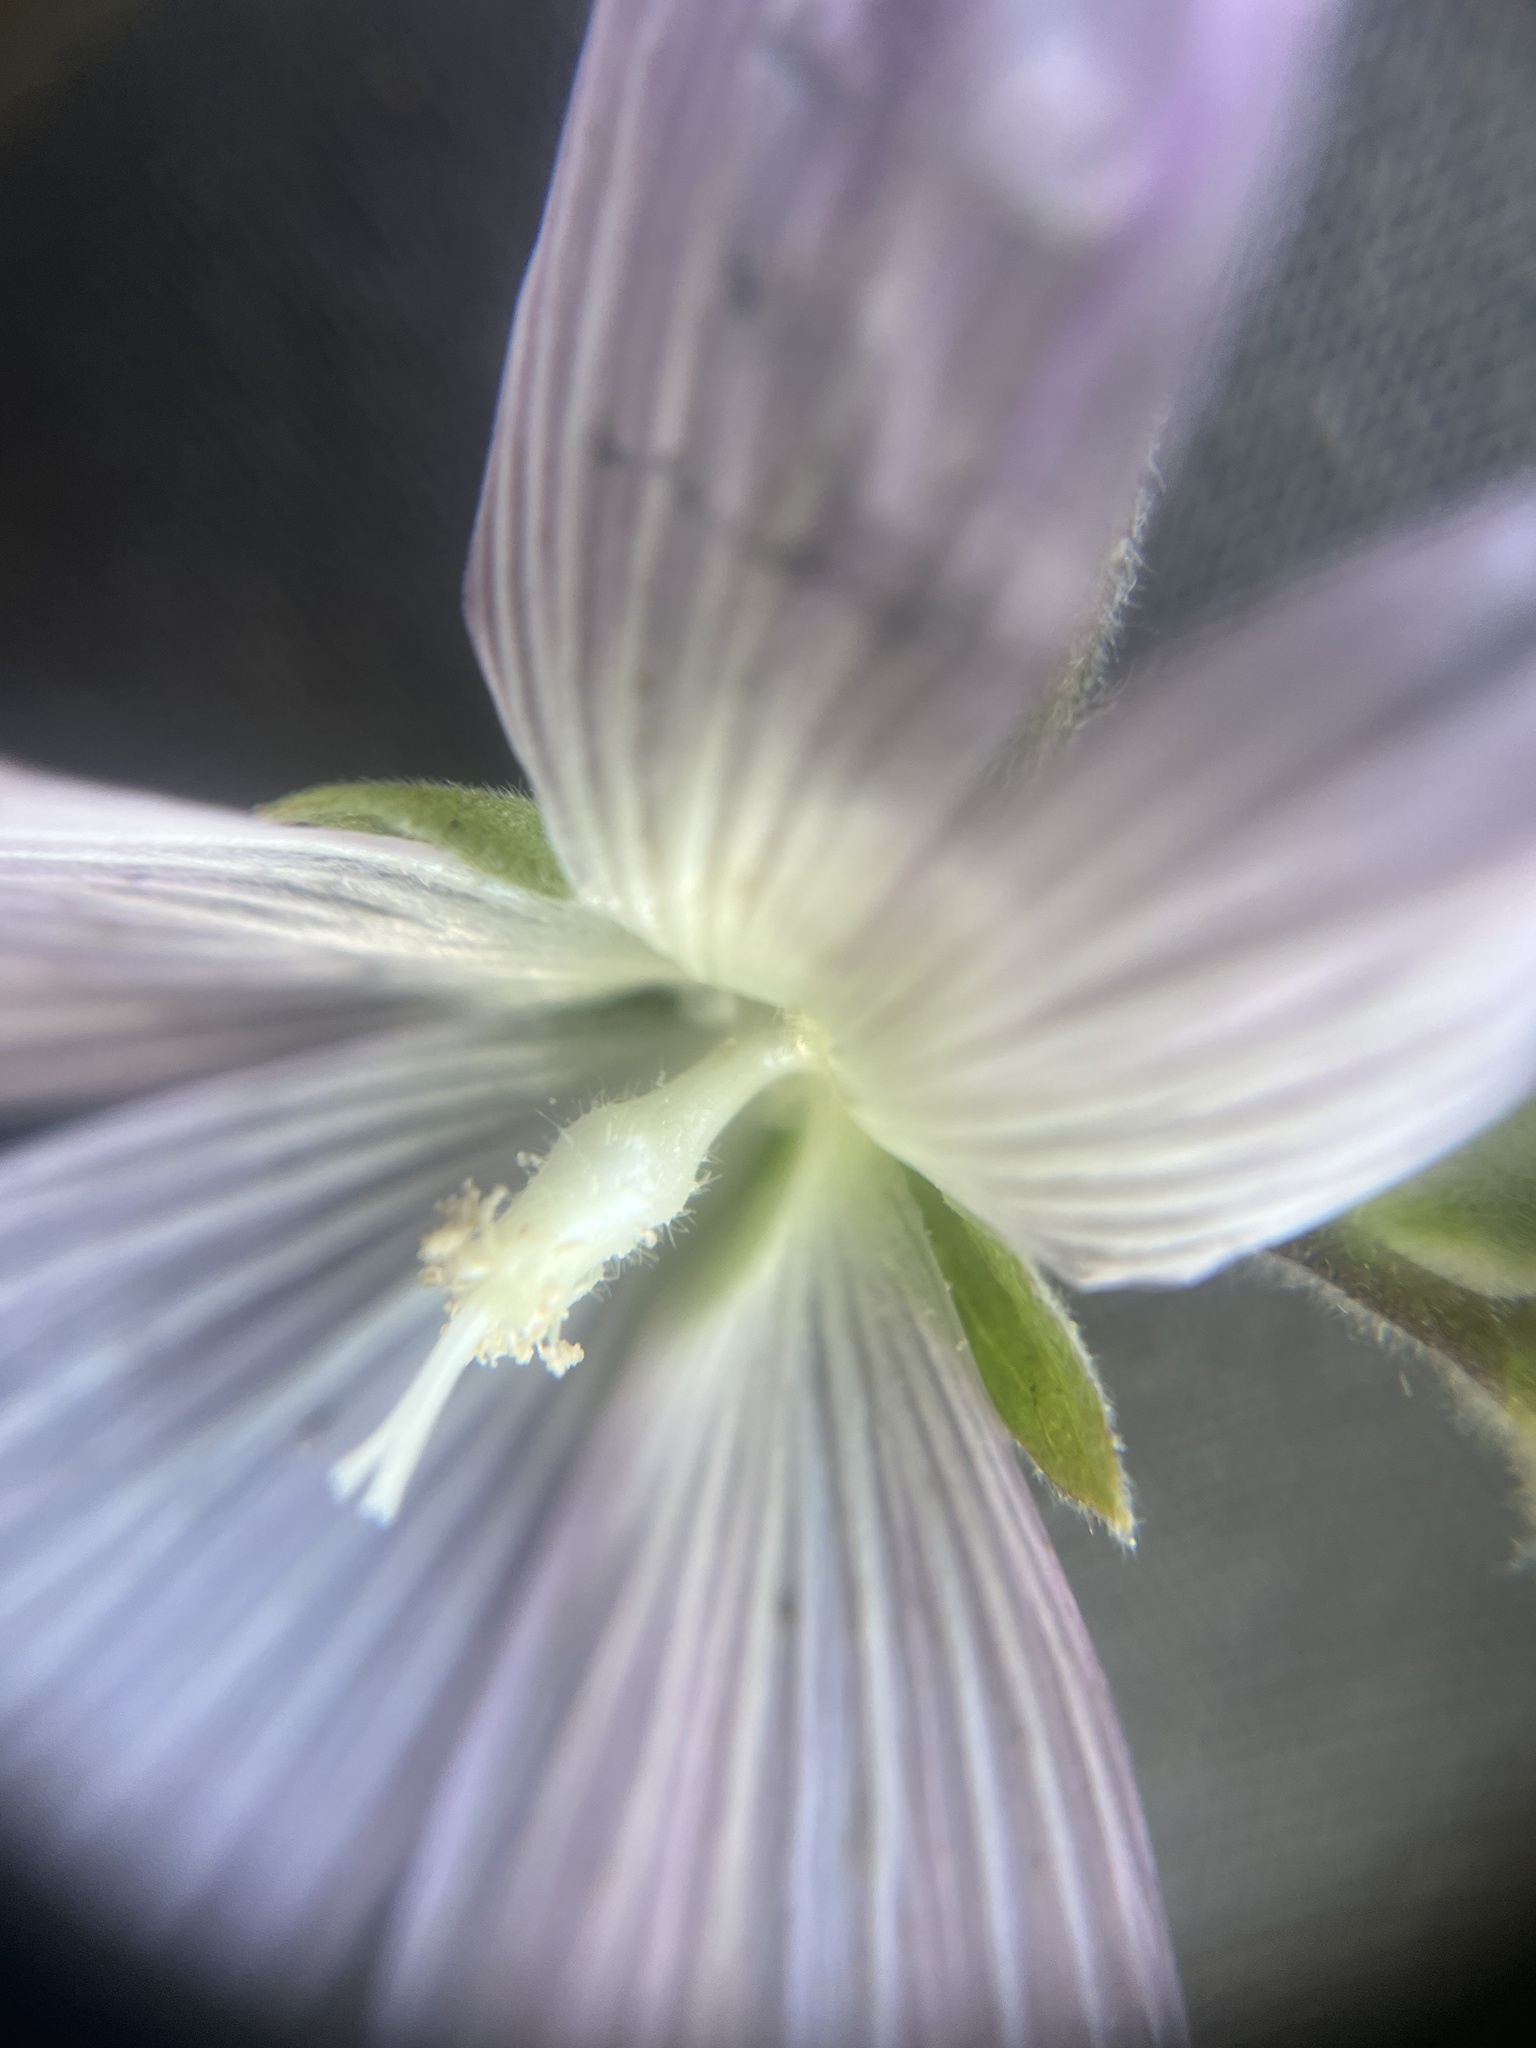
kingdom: Plantae
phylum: Tracheophyta
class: Magnoliopsida
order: Malvales
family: Malvaceae
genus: Sidalcea
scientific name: Sidalcea hirsuta
